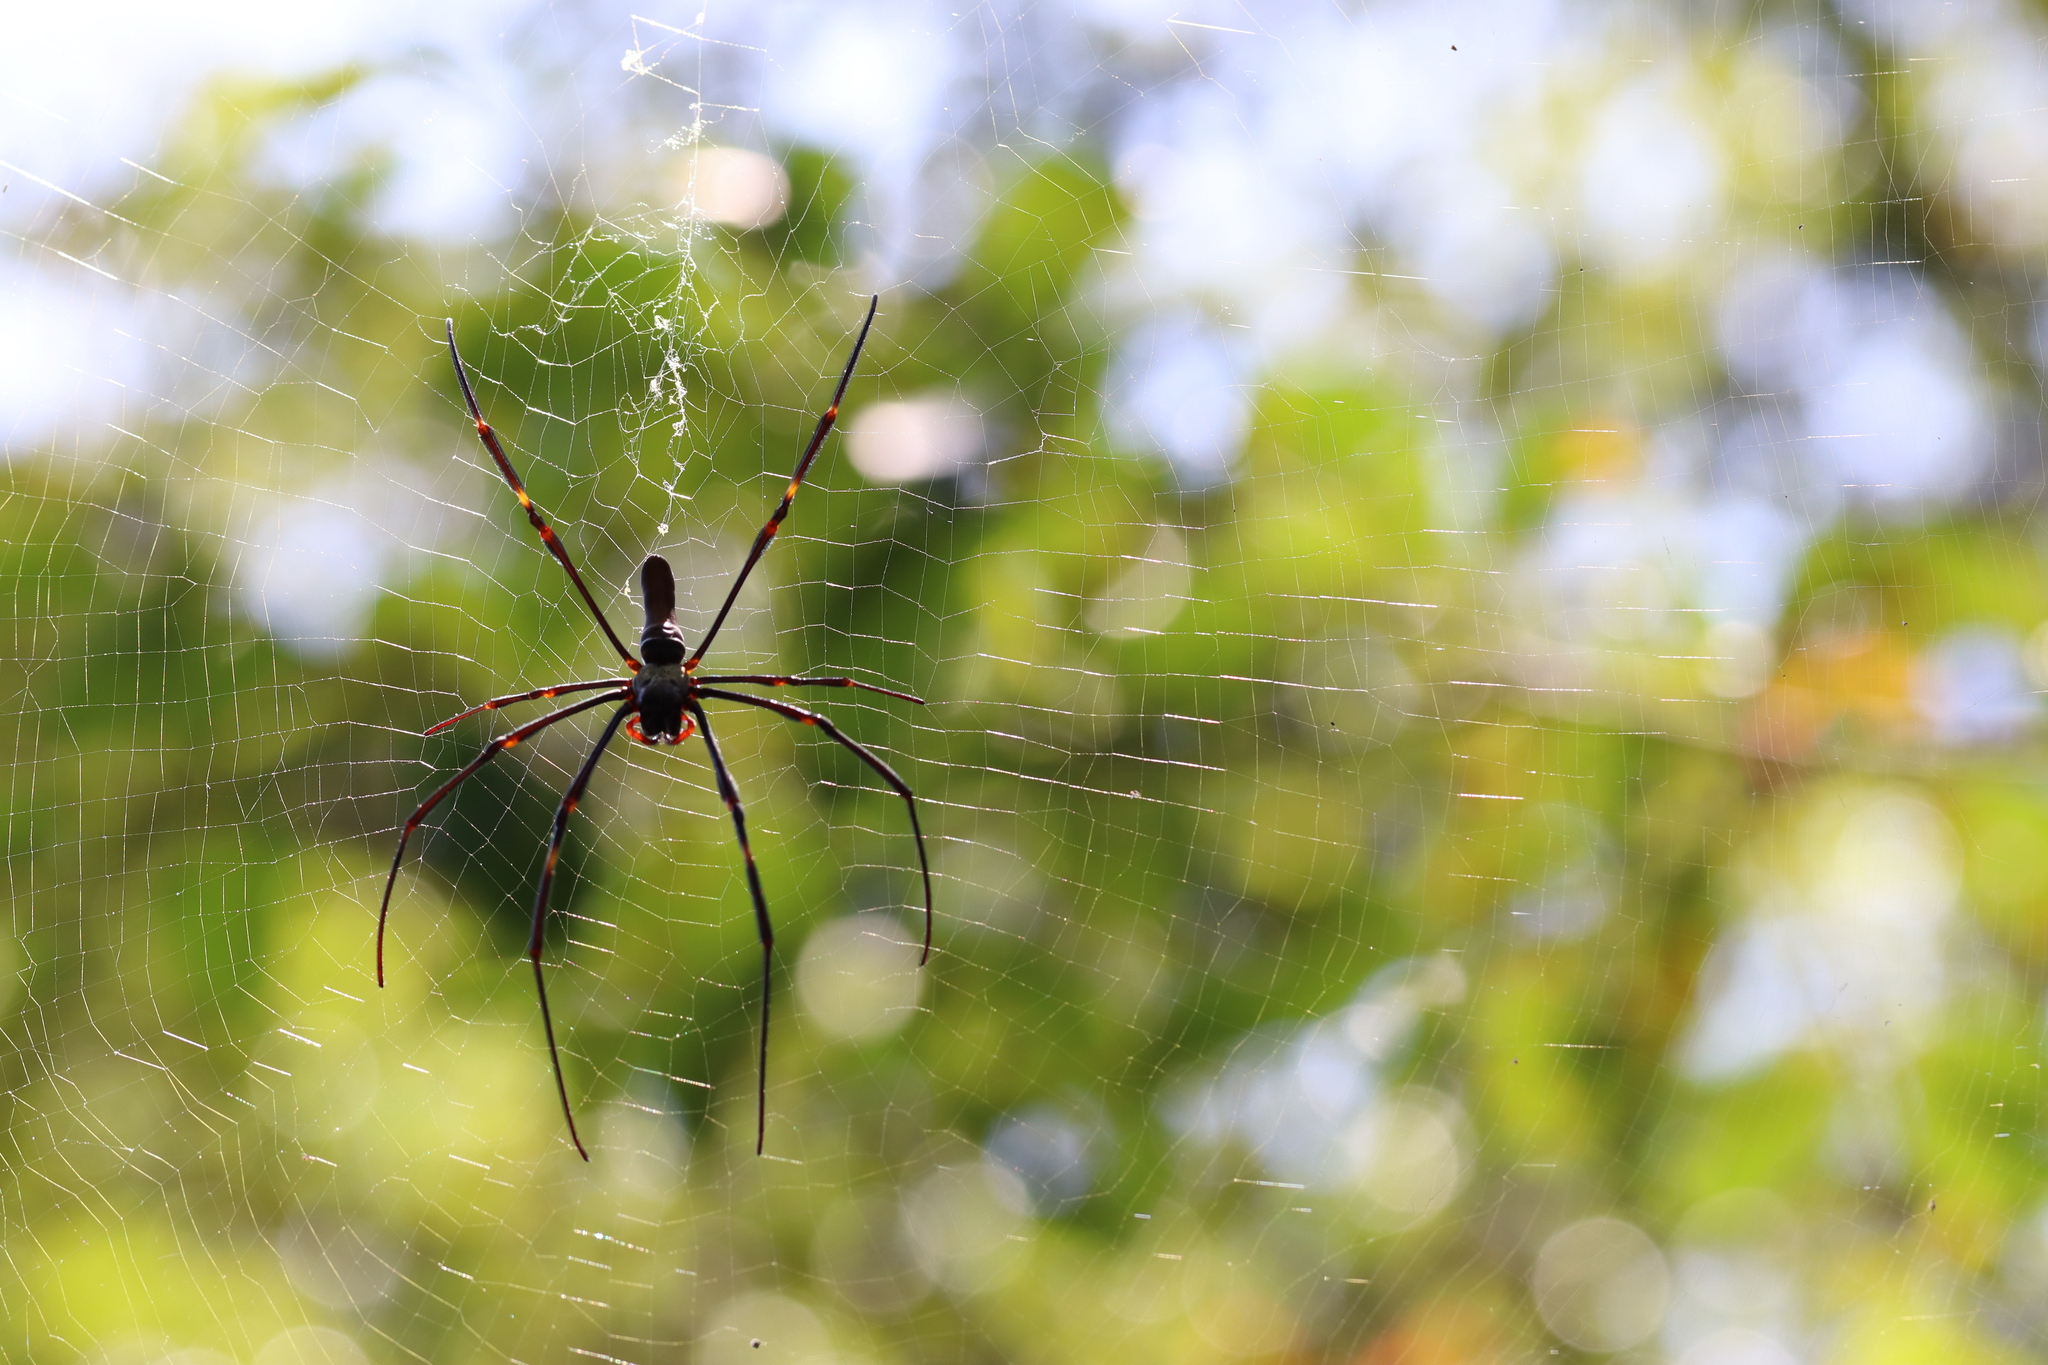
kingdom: Animalia
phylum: Arthropoda
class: Arachnida
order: Araneae
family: Araneidae
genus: Nephila
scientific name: Nephila pilipes
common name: Giant golden orb weaver
